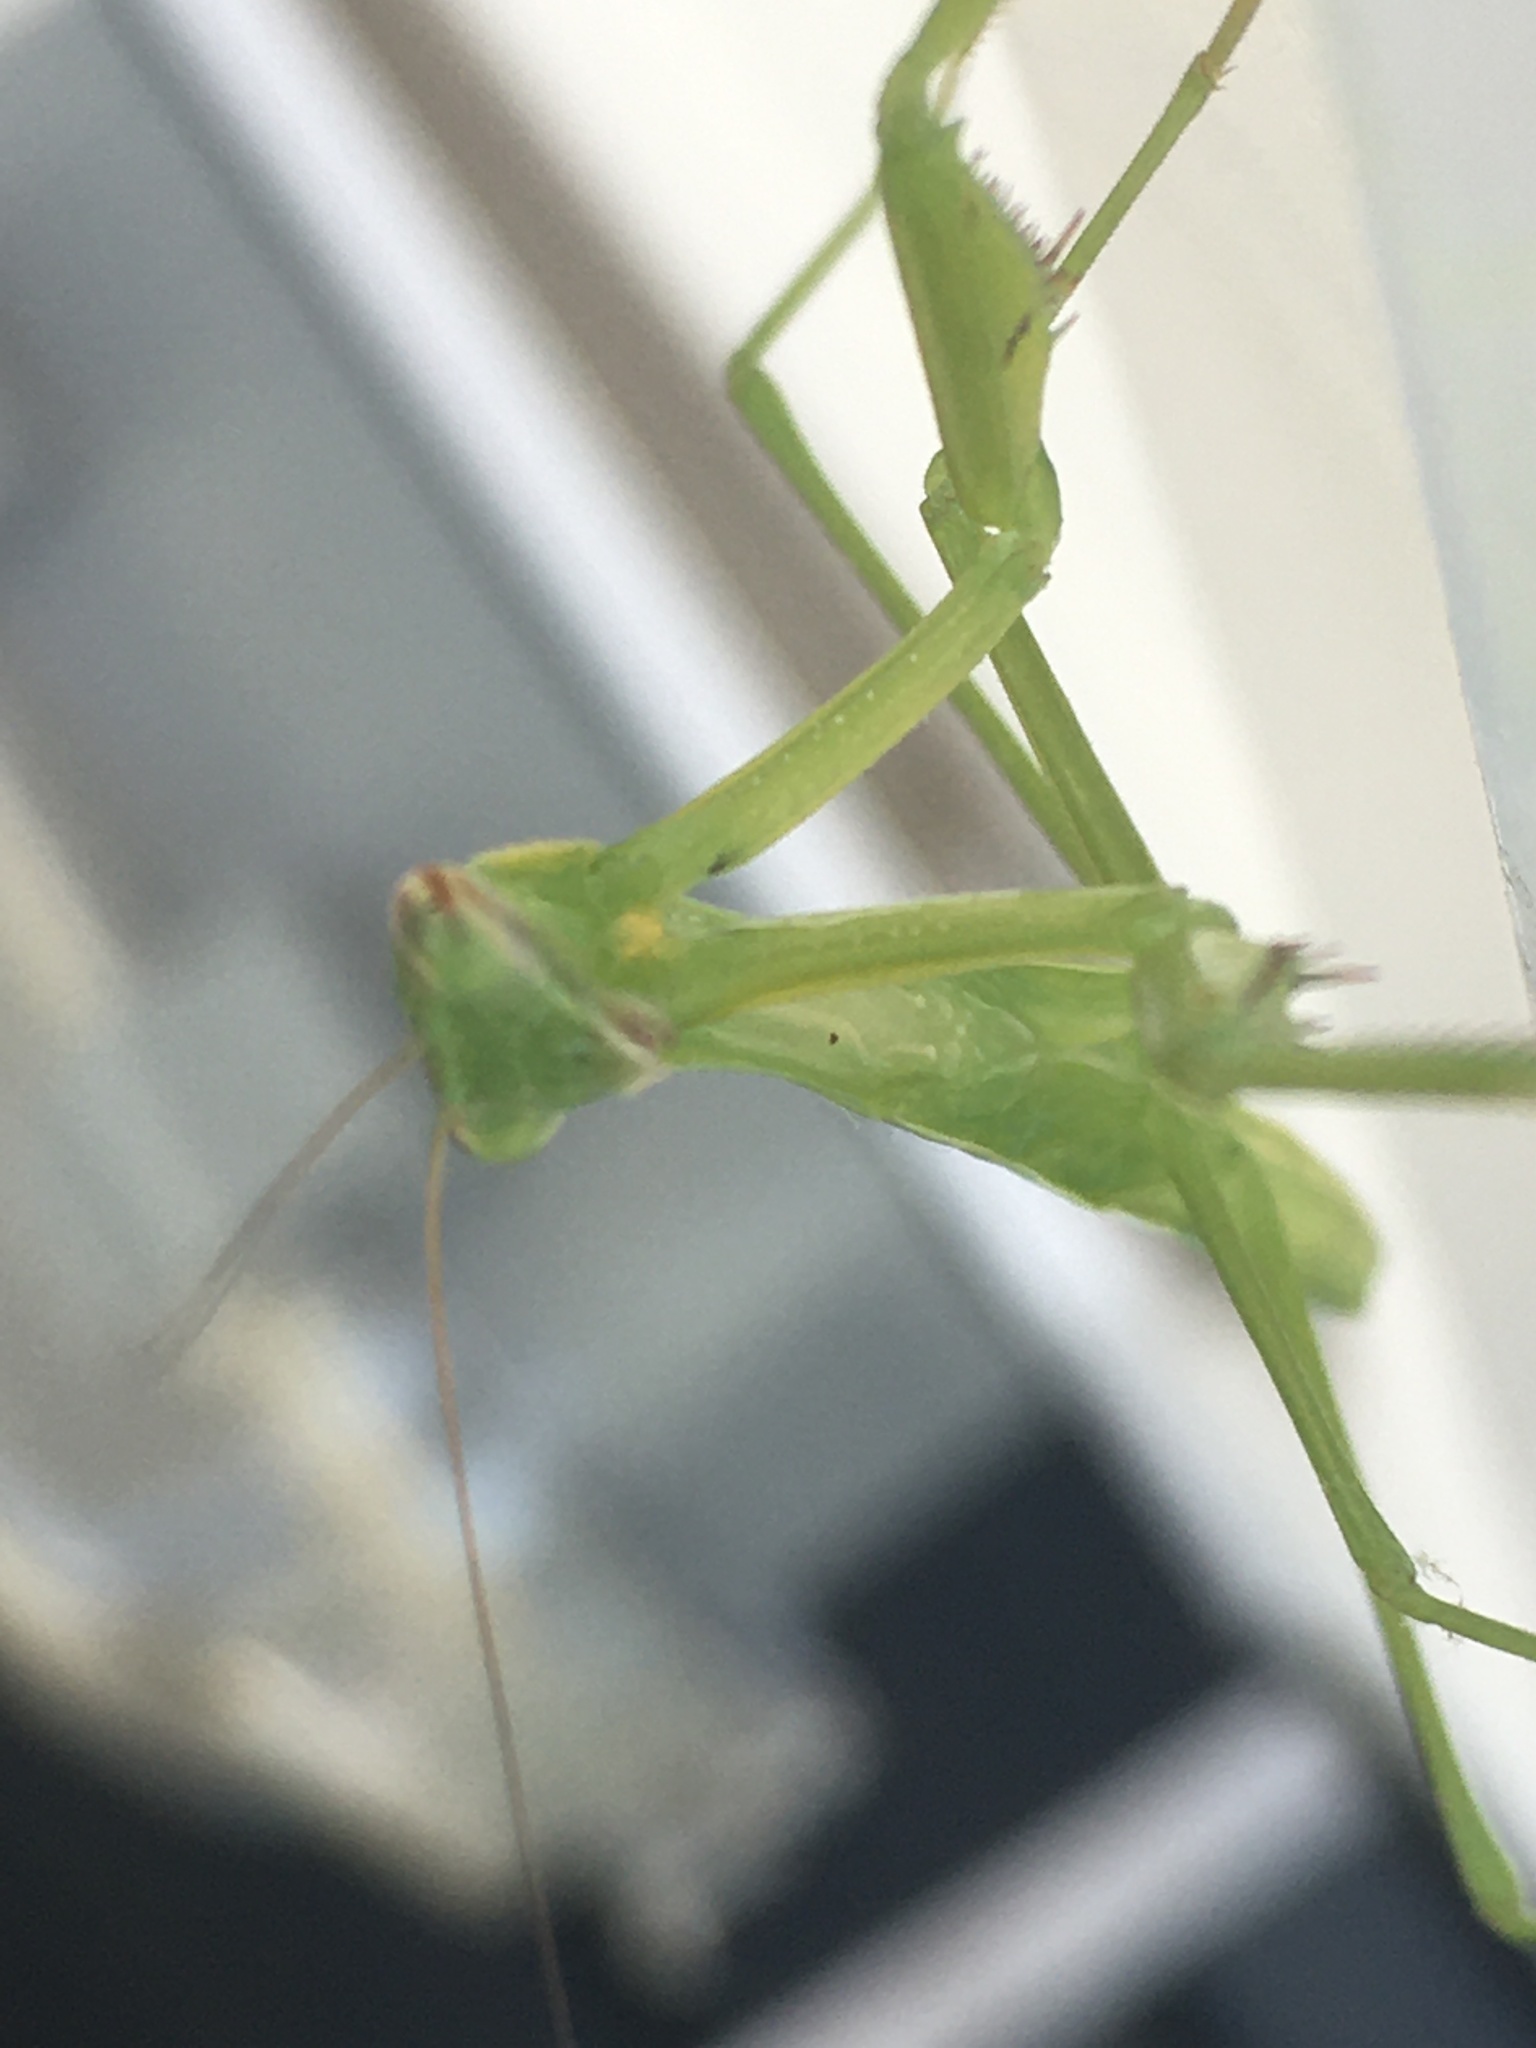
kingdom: Animalia
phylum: Arthropoda
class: Insecta
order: Mantodea
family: Mantidae
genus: Tenodera
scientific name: Tenodera sinensis
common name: Chinese mantis
